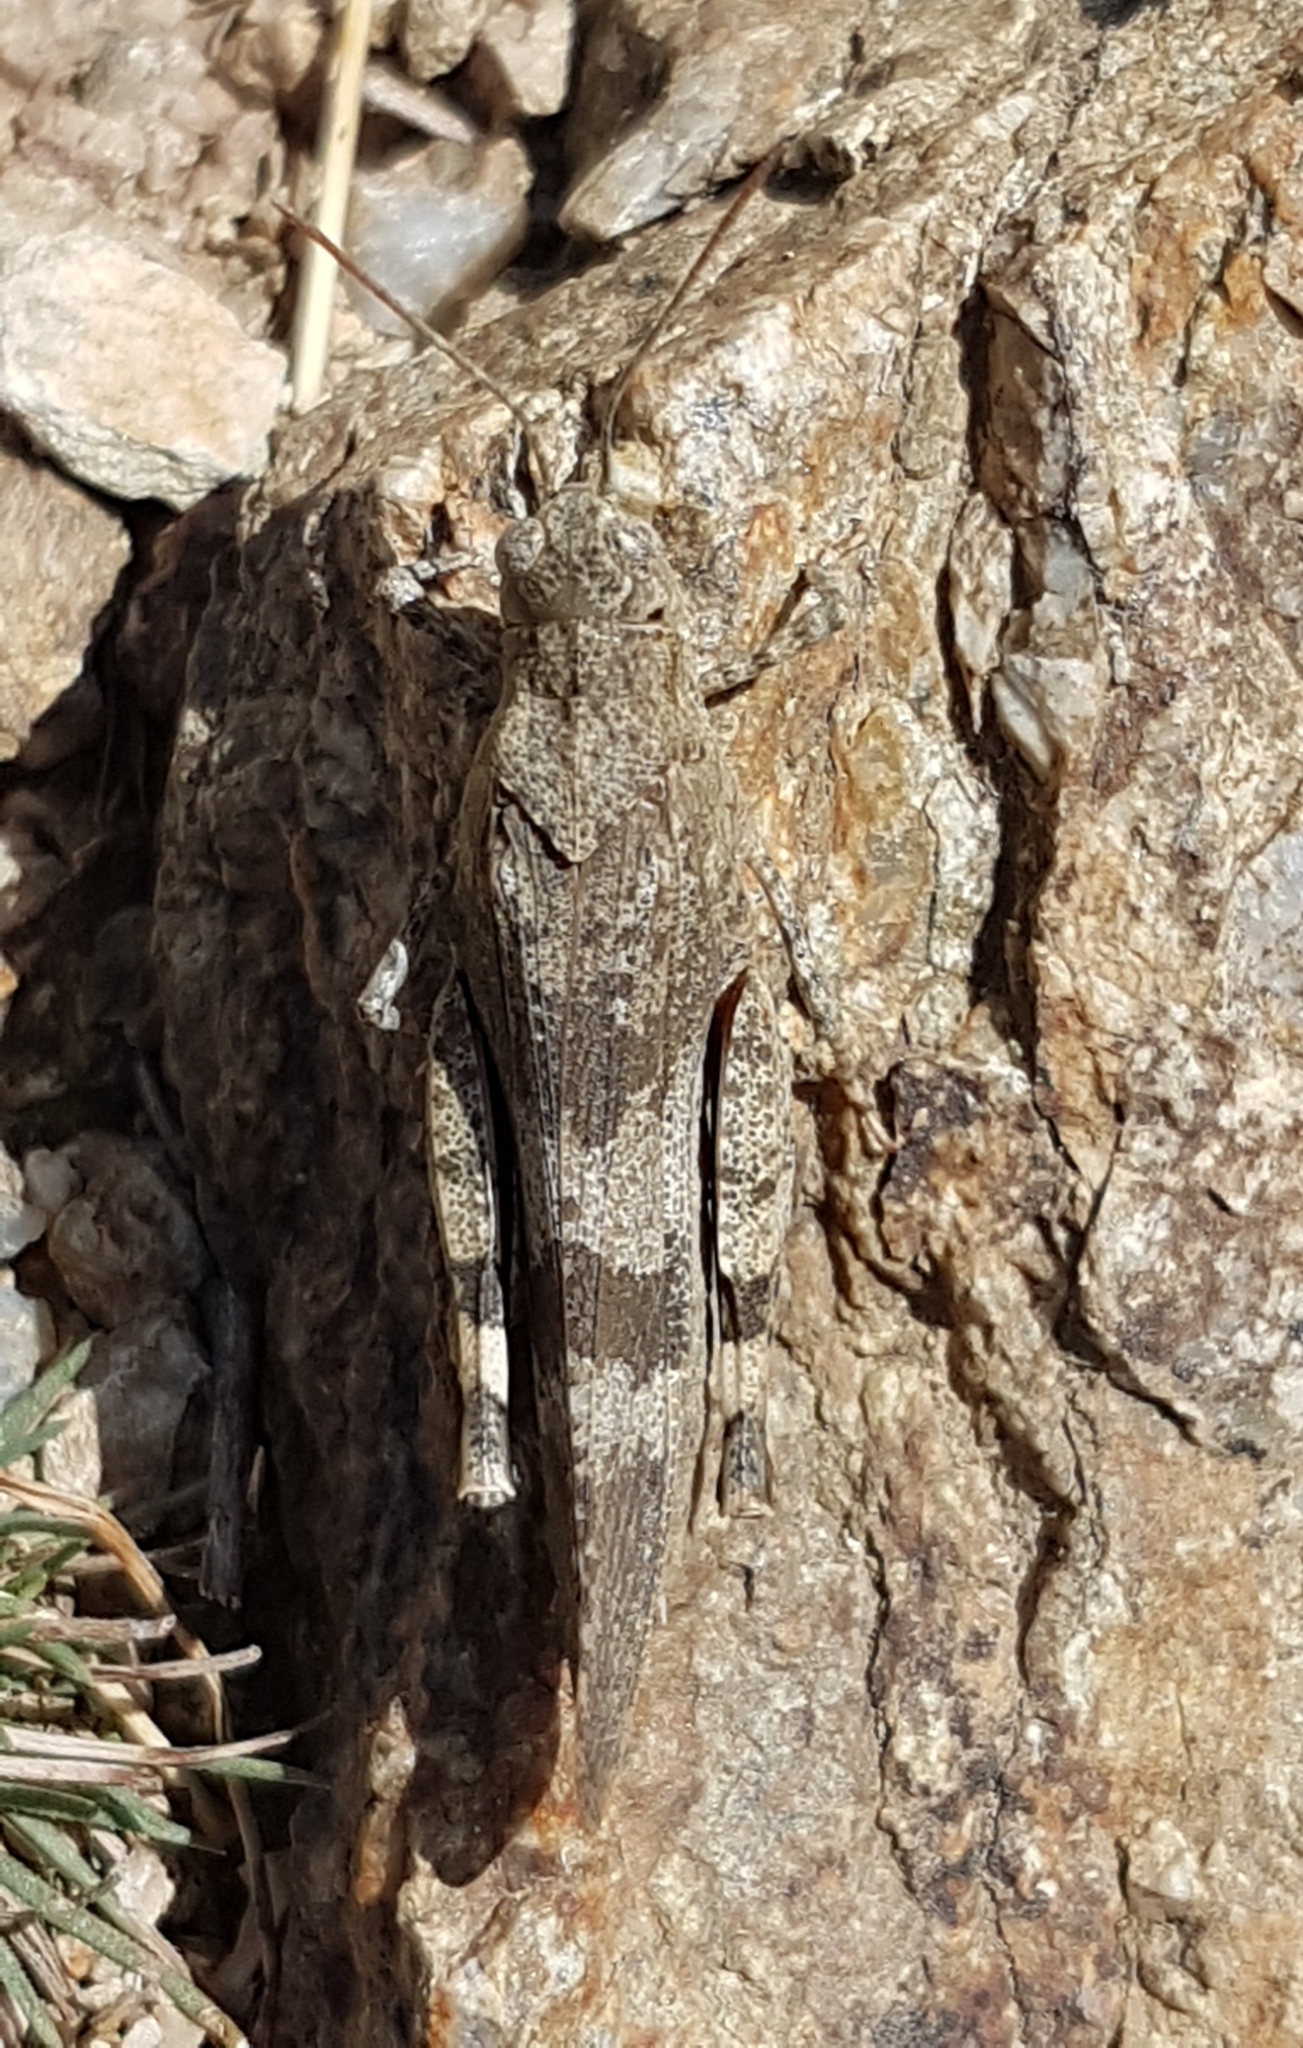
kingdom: Animalia
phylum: Arthropoda
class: Insecta
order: Orthoptera
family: Acrididae
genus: Oedipoda
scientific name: Oedipoda germanica
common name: Red band-winged grasshopper
